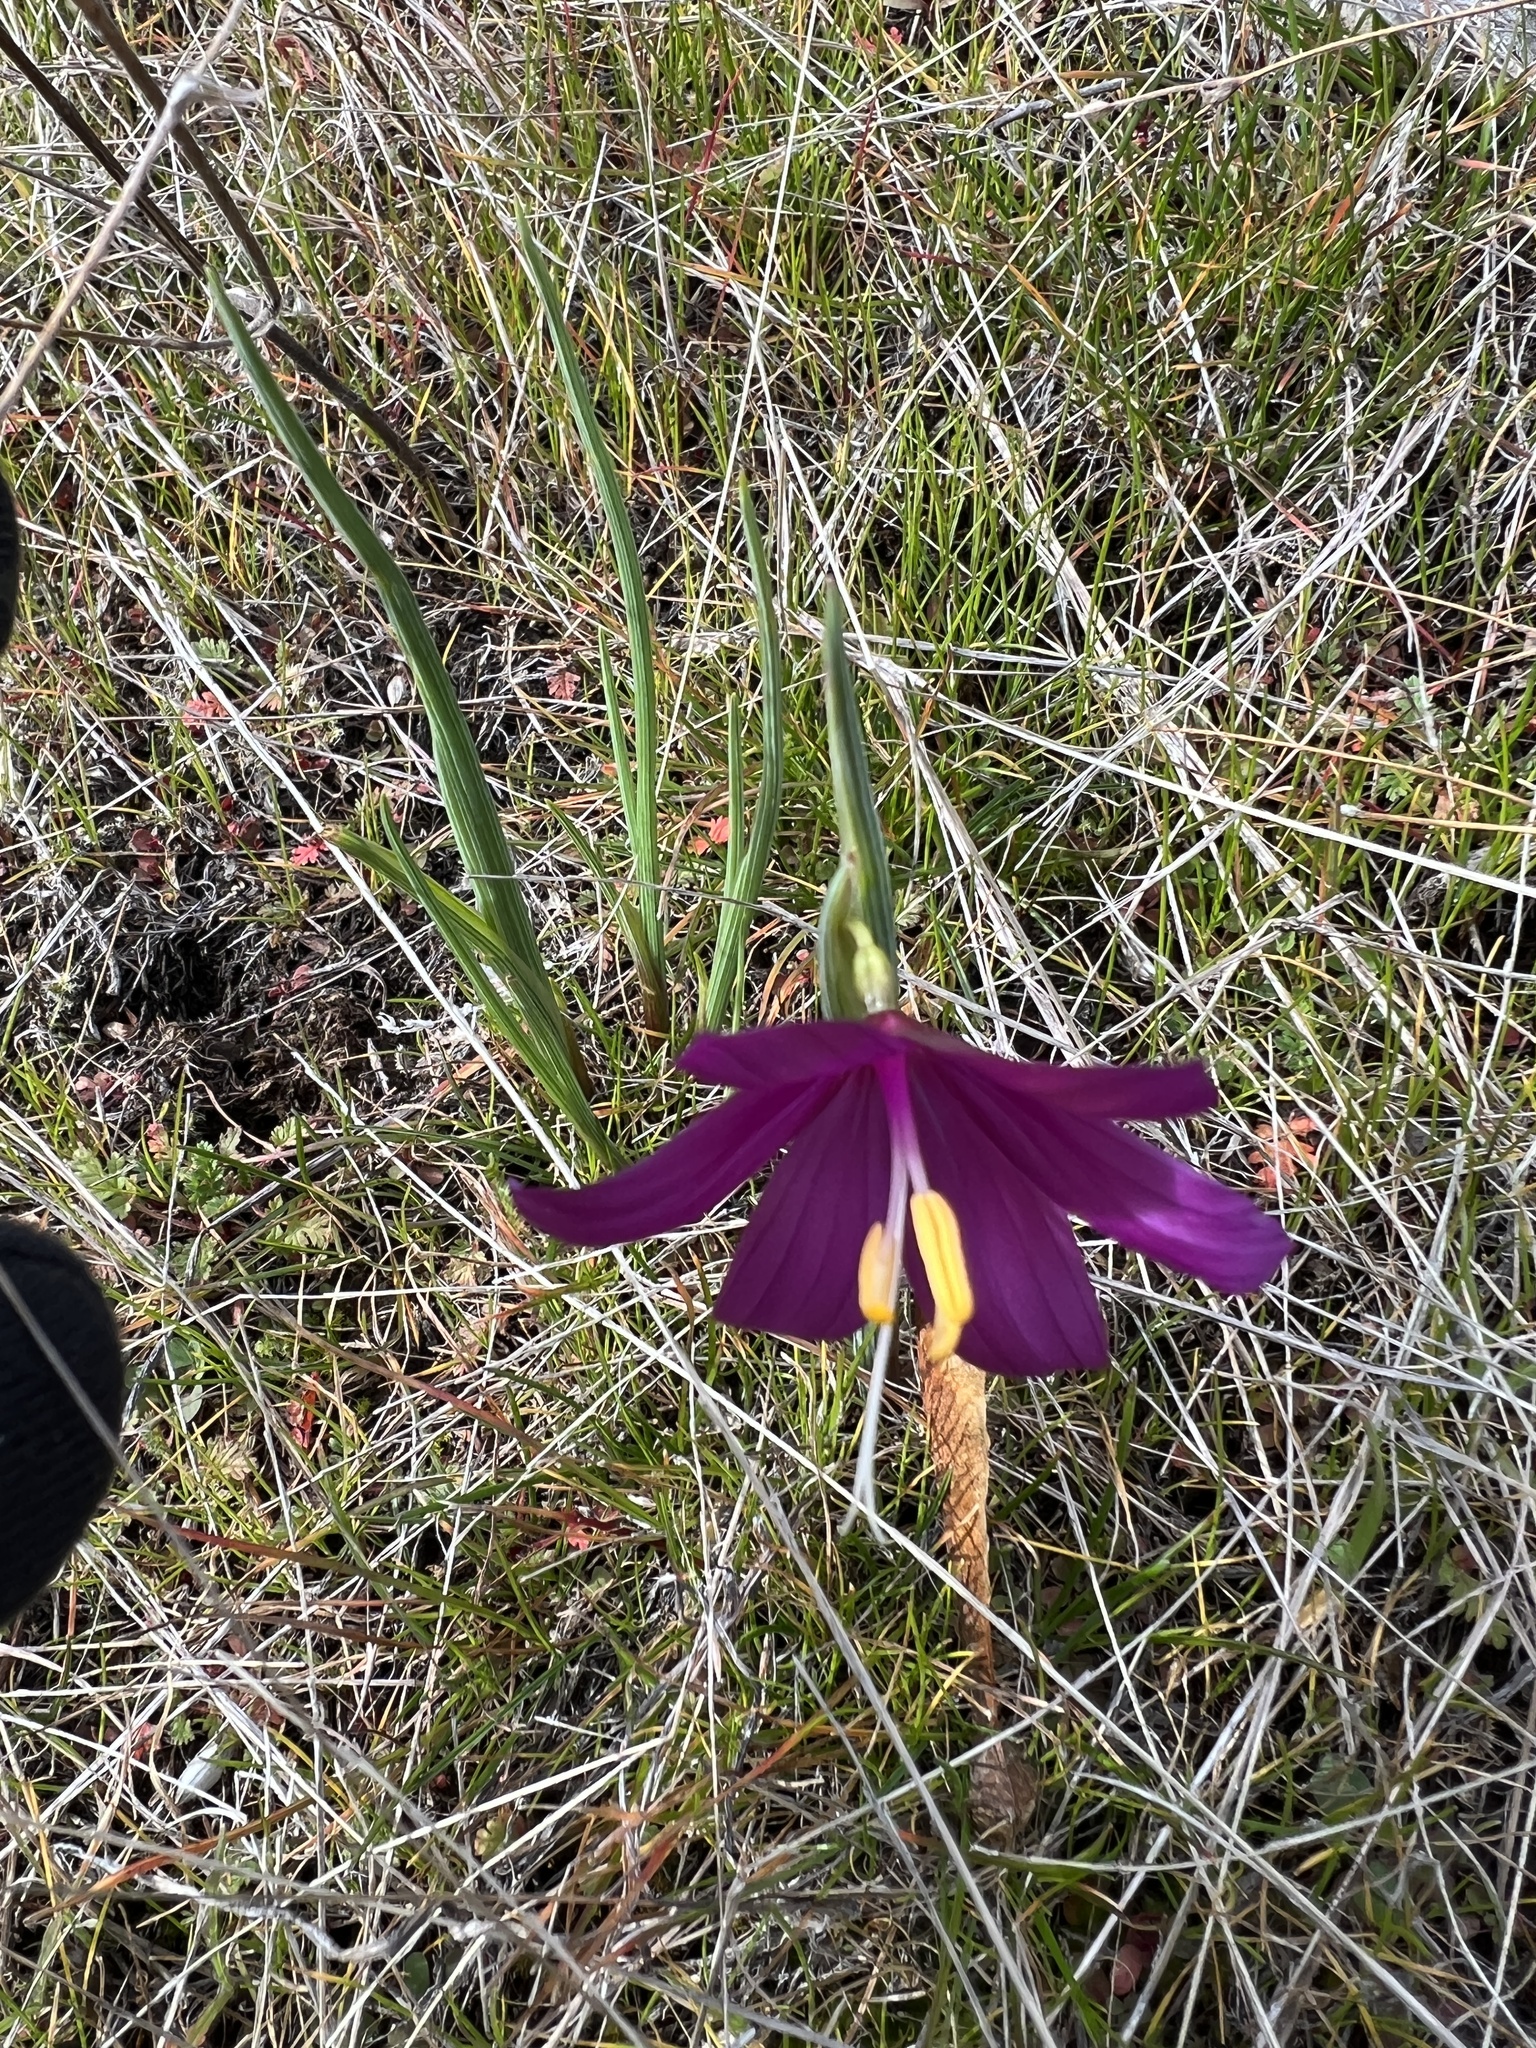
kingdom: Plantae
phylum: Tracheophyta
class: Liliopsida
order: Asparagales
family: Iridaceae
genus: Olsynium
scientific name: Olsynium douglasii
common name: Douglas' grasswidow
